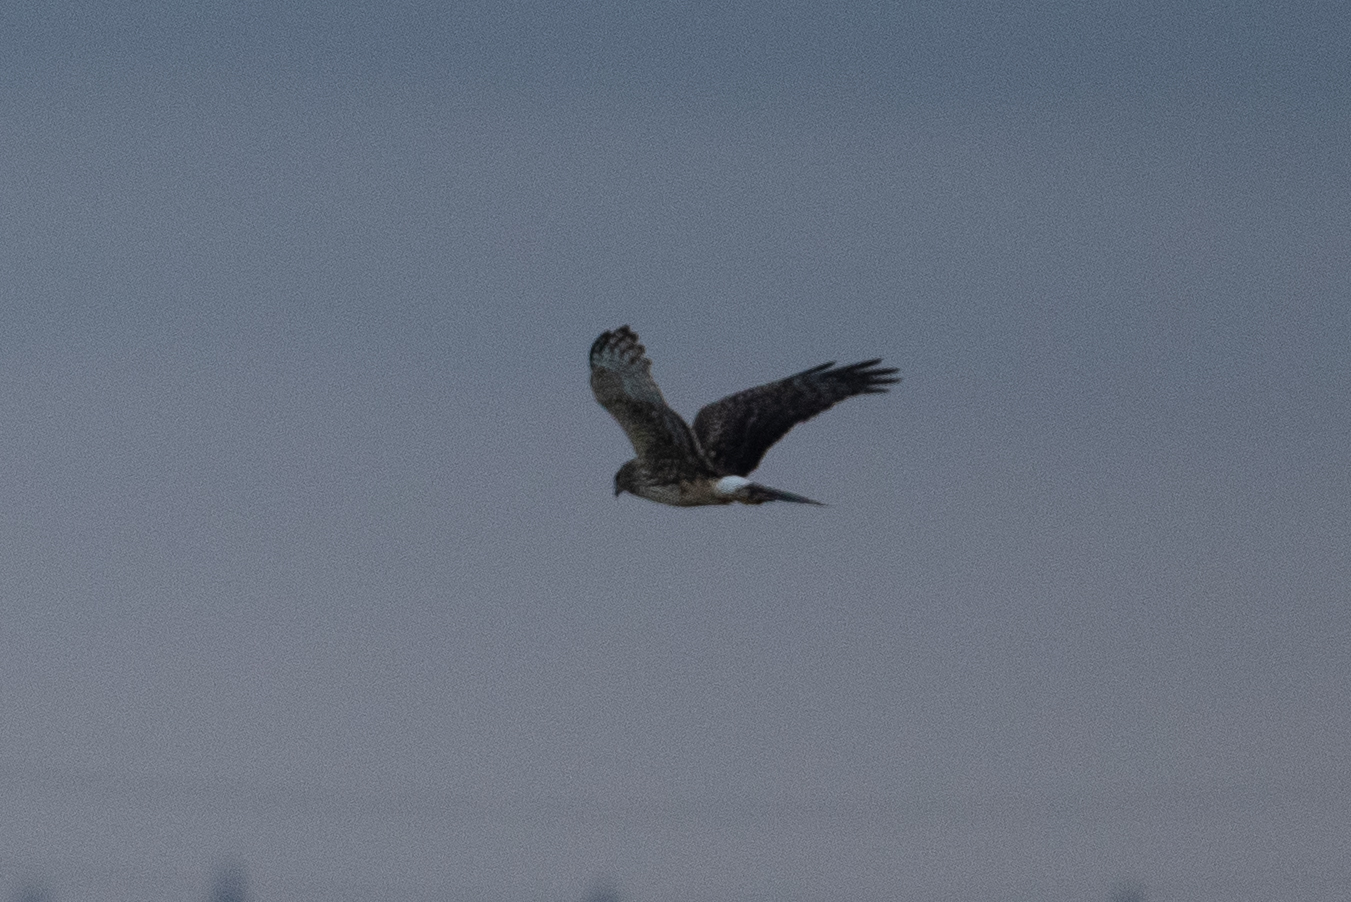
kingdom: Animalia
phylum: Chordata
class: Aves
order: Accipitriformes
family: Accipitridae
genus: Circus
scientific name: Circus cyaneus
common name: Hen harrier
